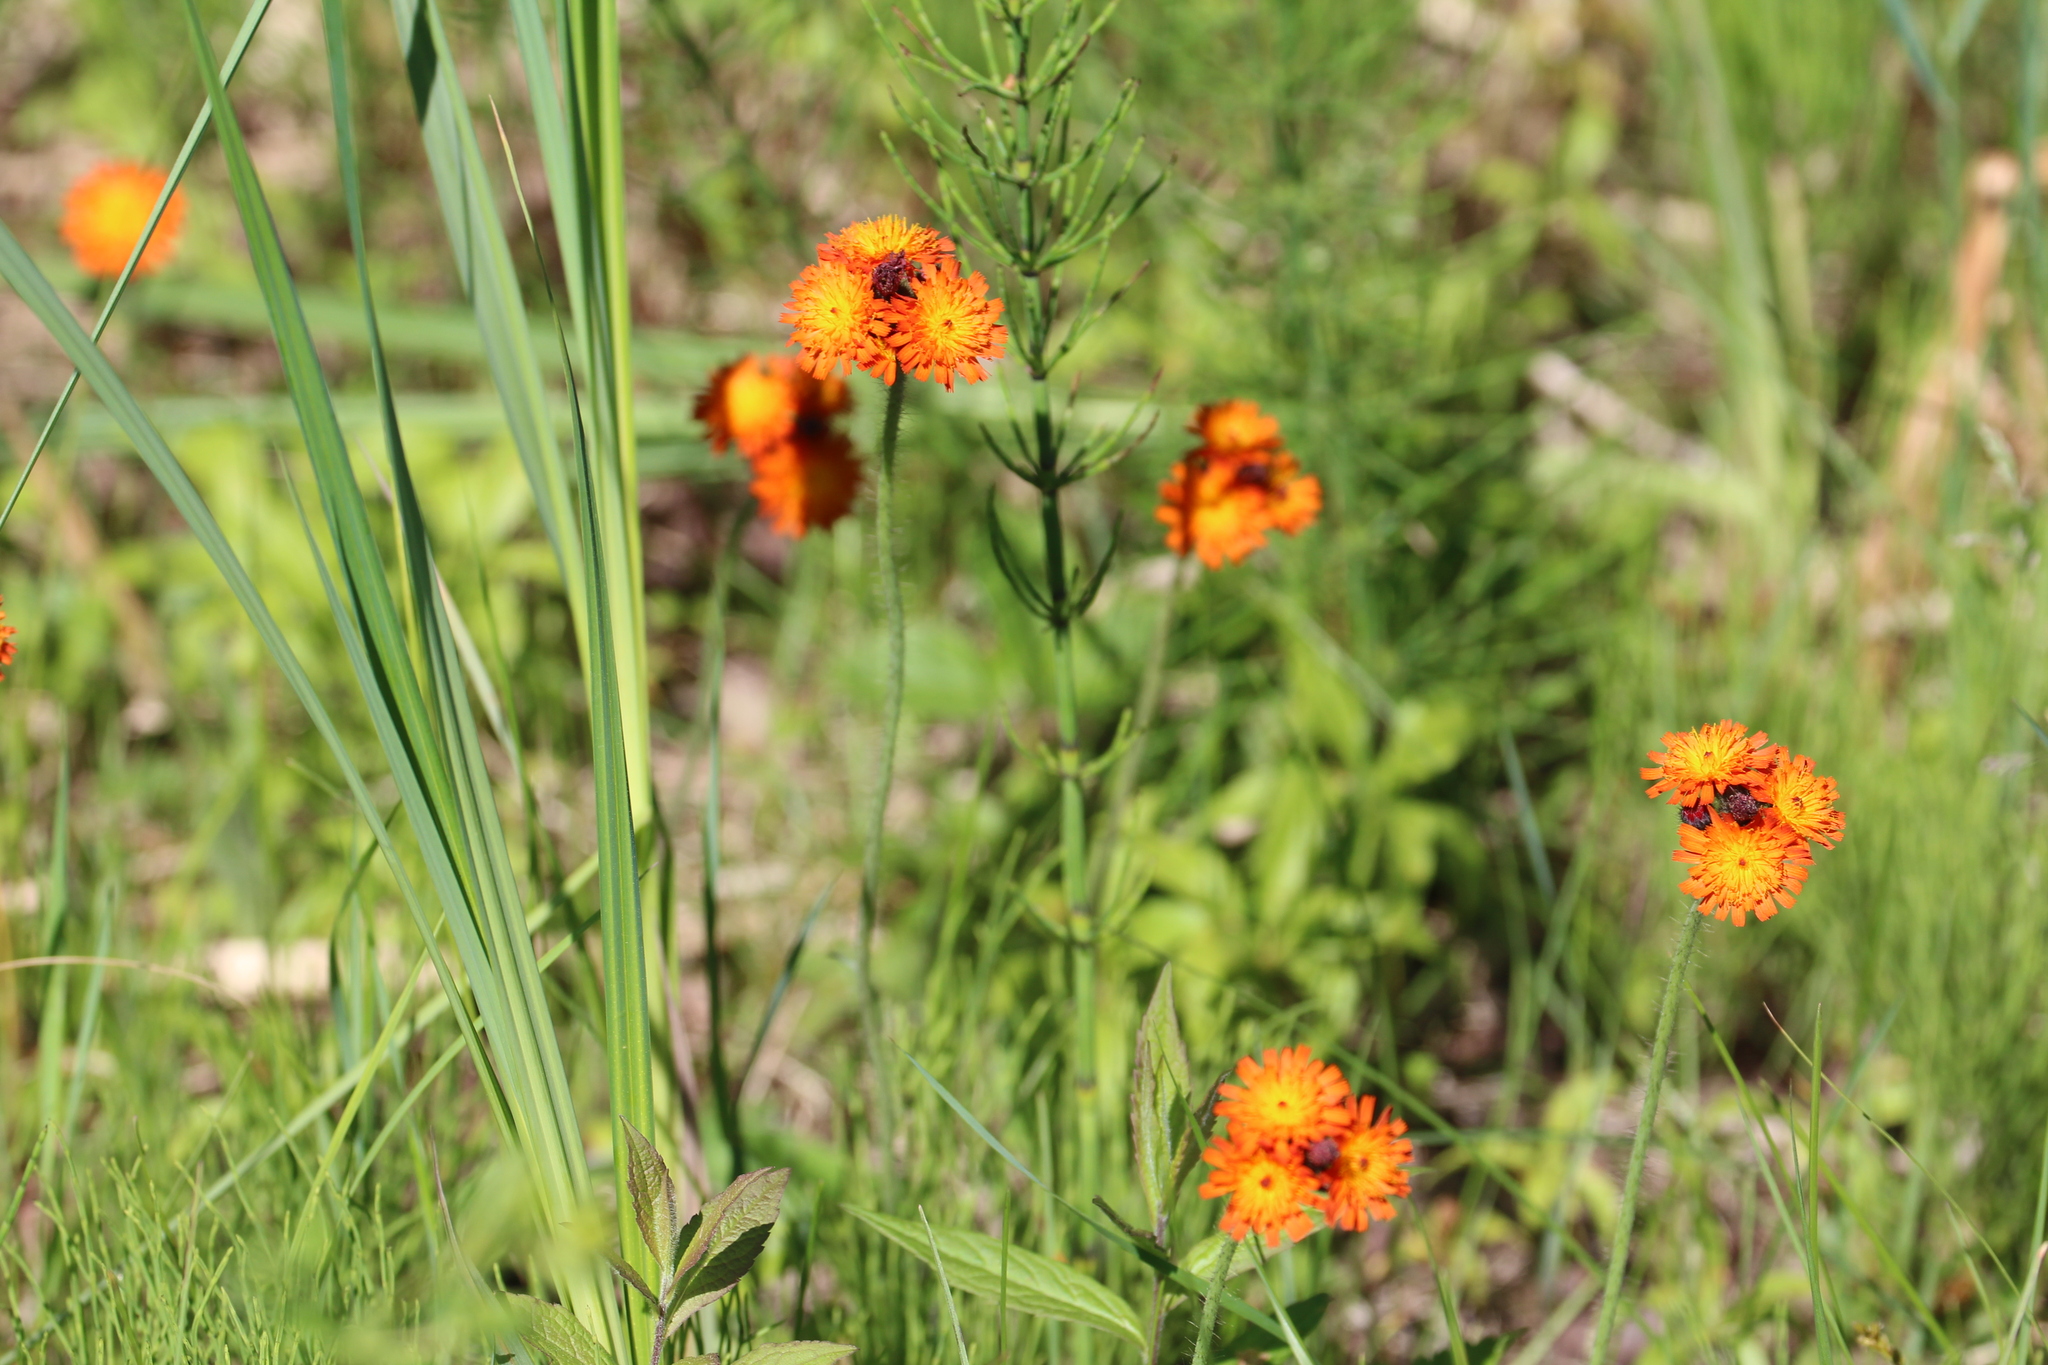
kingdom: Plantae
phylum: Tracheophyta
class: Magnoliopsida
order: Asterales
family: Asteraceae
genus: Pilosella
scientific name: Pilosella aurantiaca
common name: Fox-and-cubs
